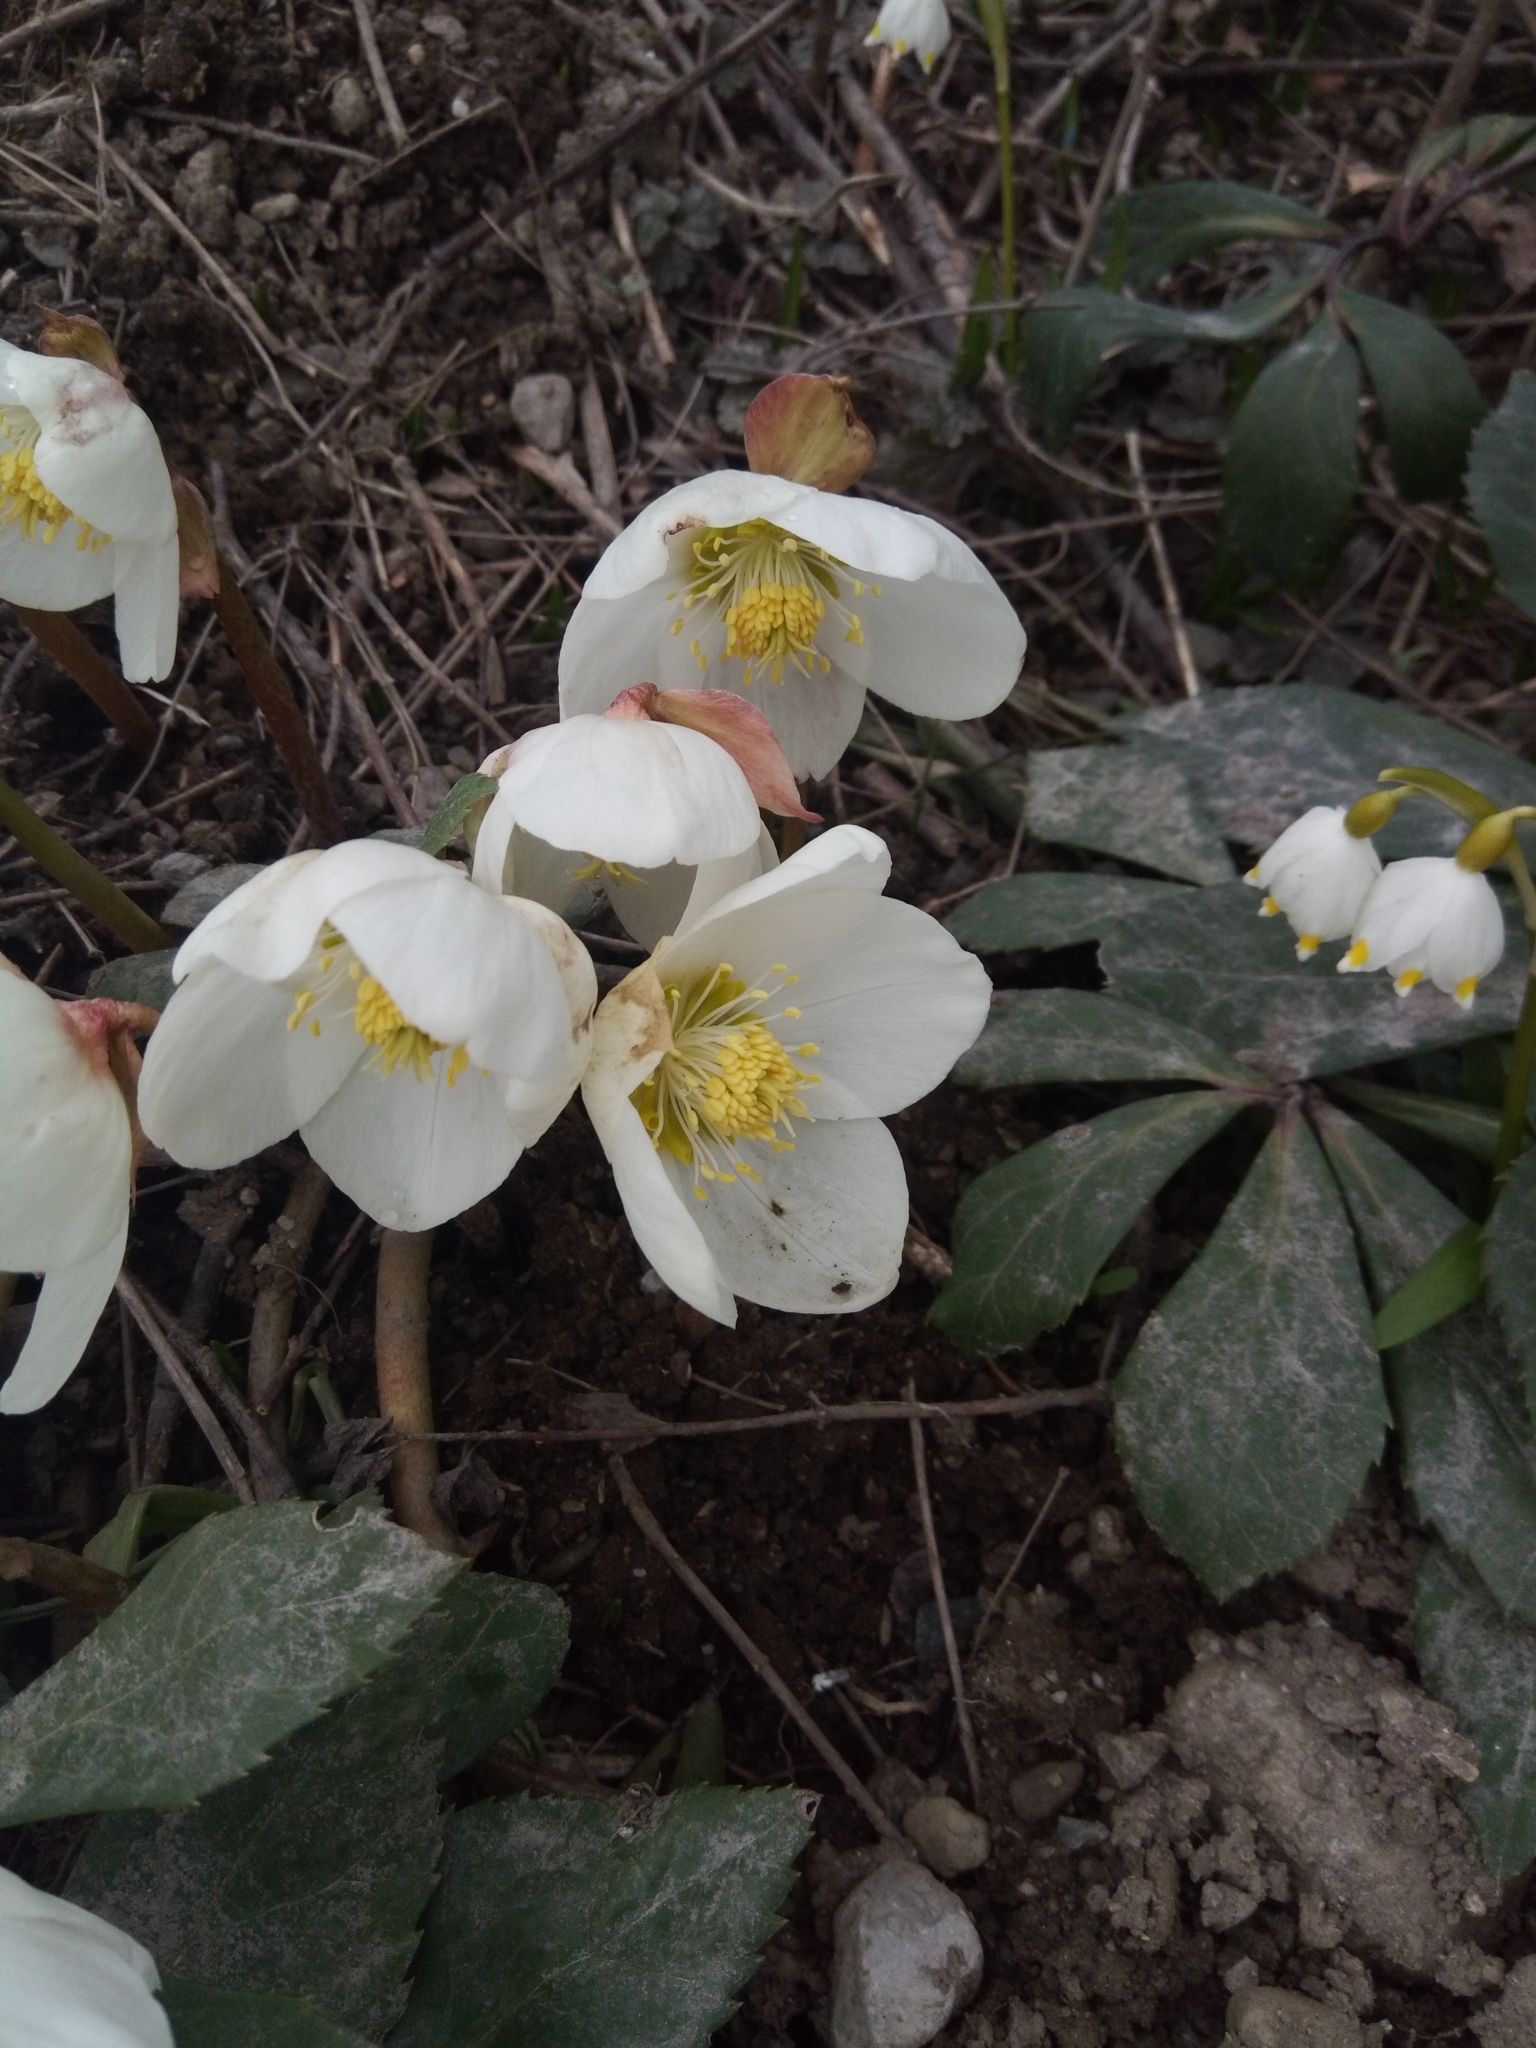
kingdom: Plantae
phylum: Tracheophyta
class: Magnoliopsida
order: Ranunculales
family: Ranunculaceae
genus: Helleborus
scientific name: Helleborus niger
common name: Black hellebore
